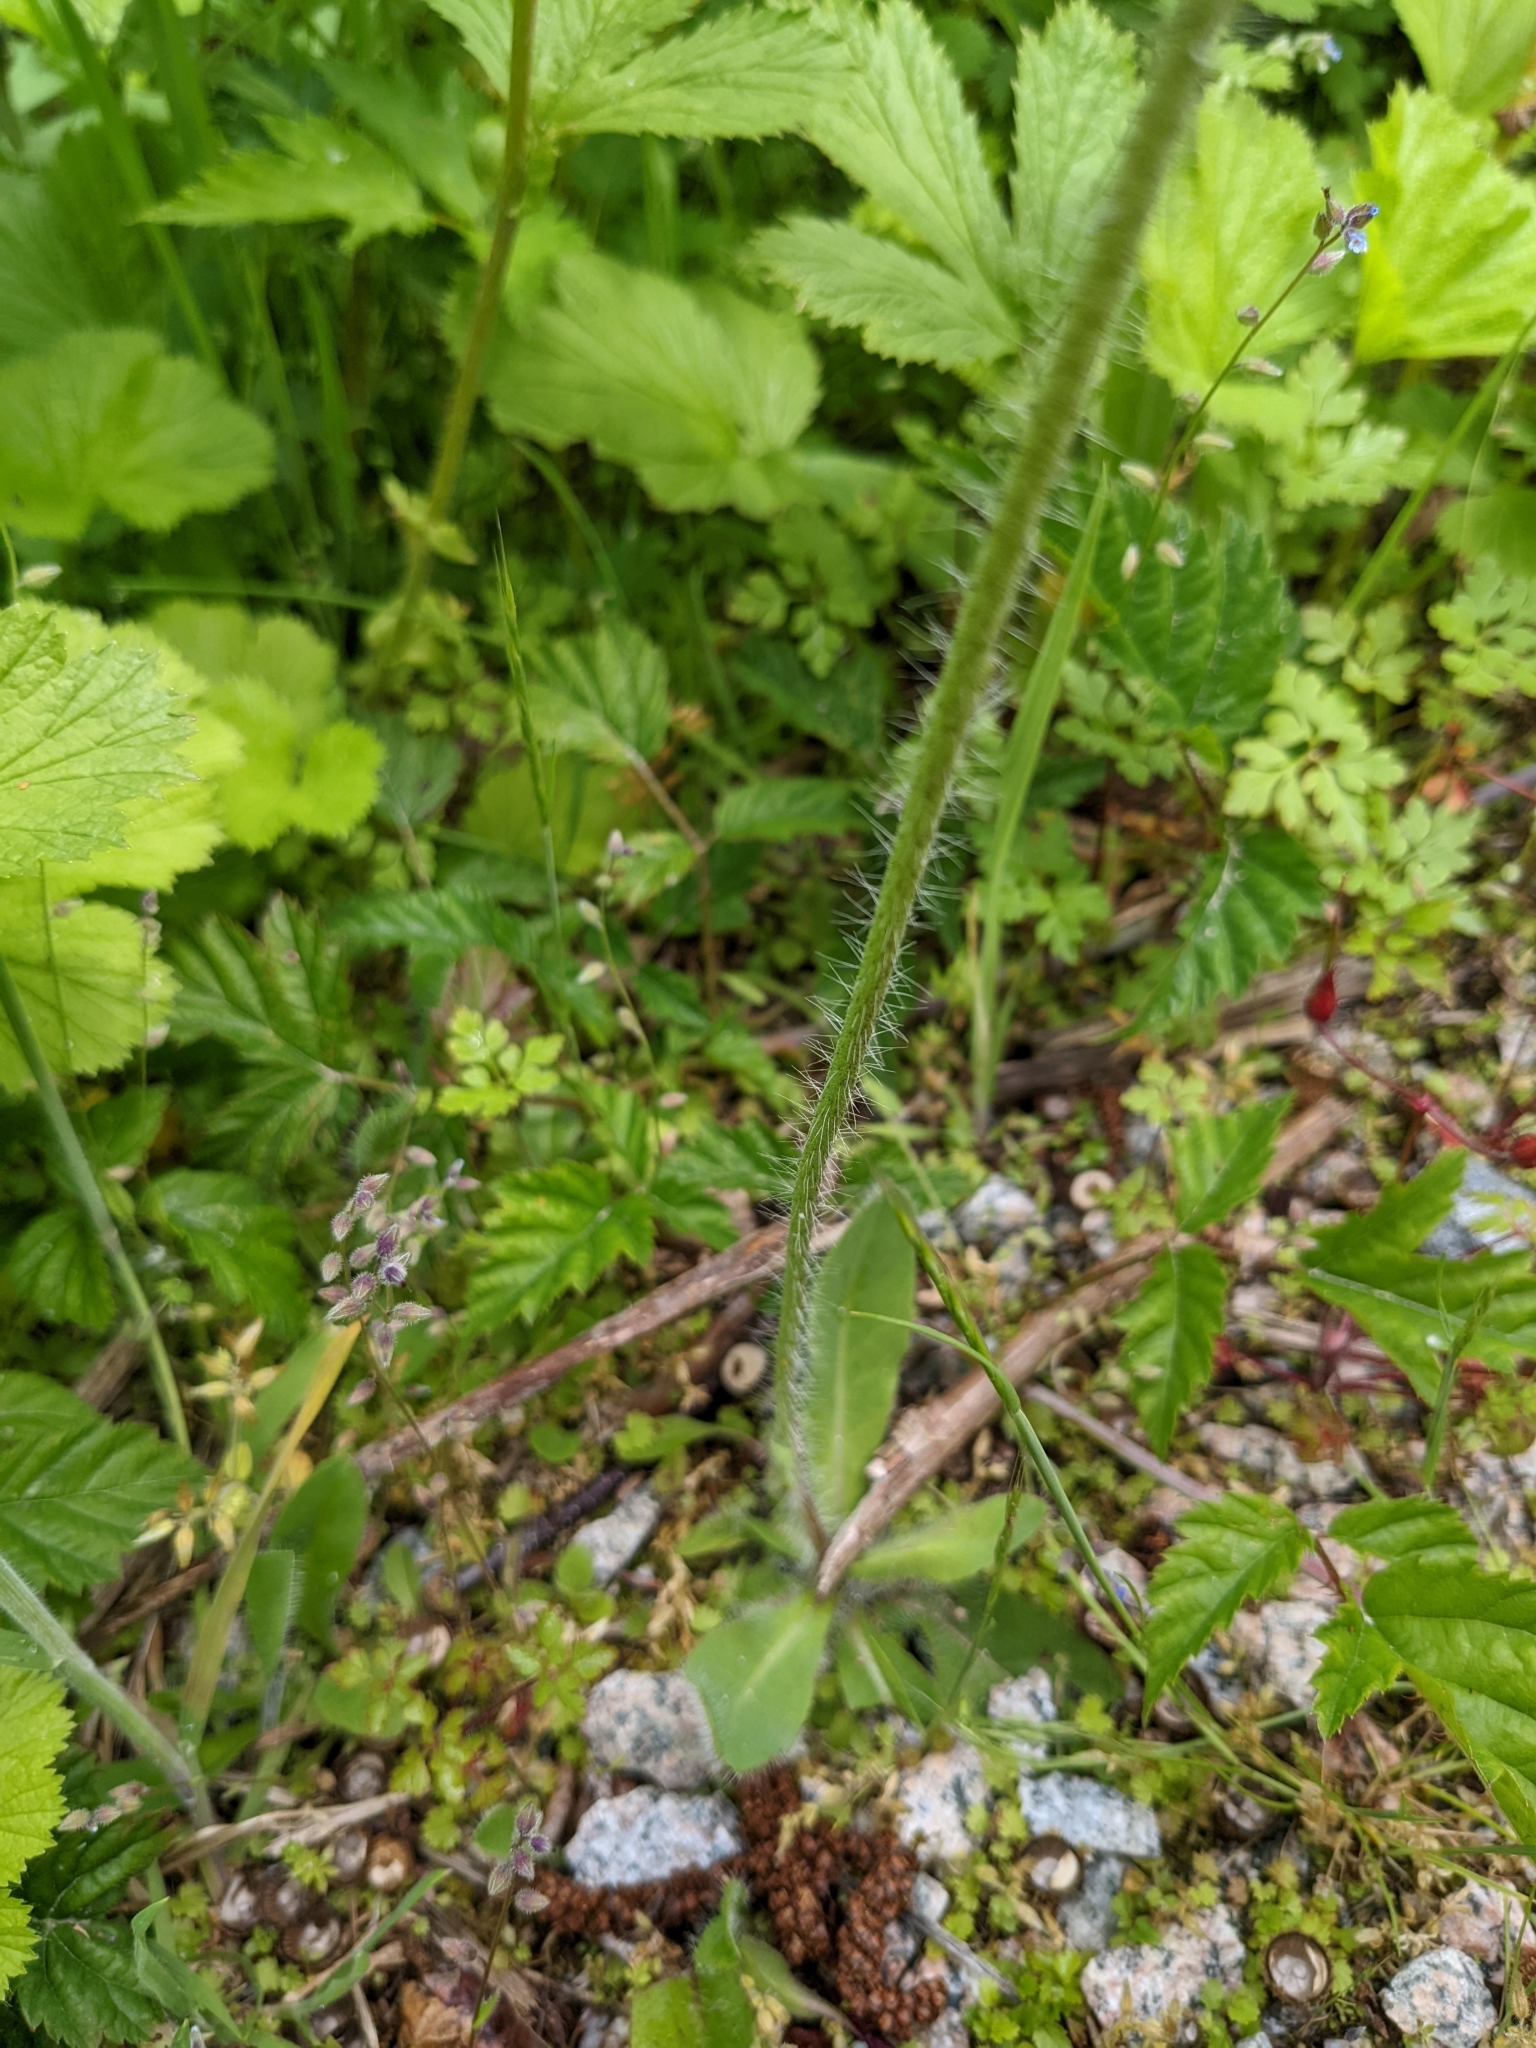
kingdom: Plantae
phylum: Tracheophyta
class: Magnoliopsida
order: Asterales
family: Asteraceae
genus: Pilosella
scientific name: Pilosella aurantiaca
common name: Fox-and-cubs
